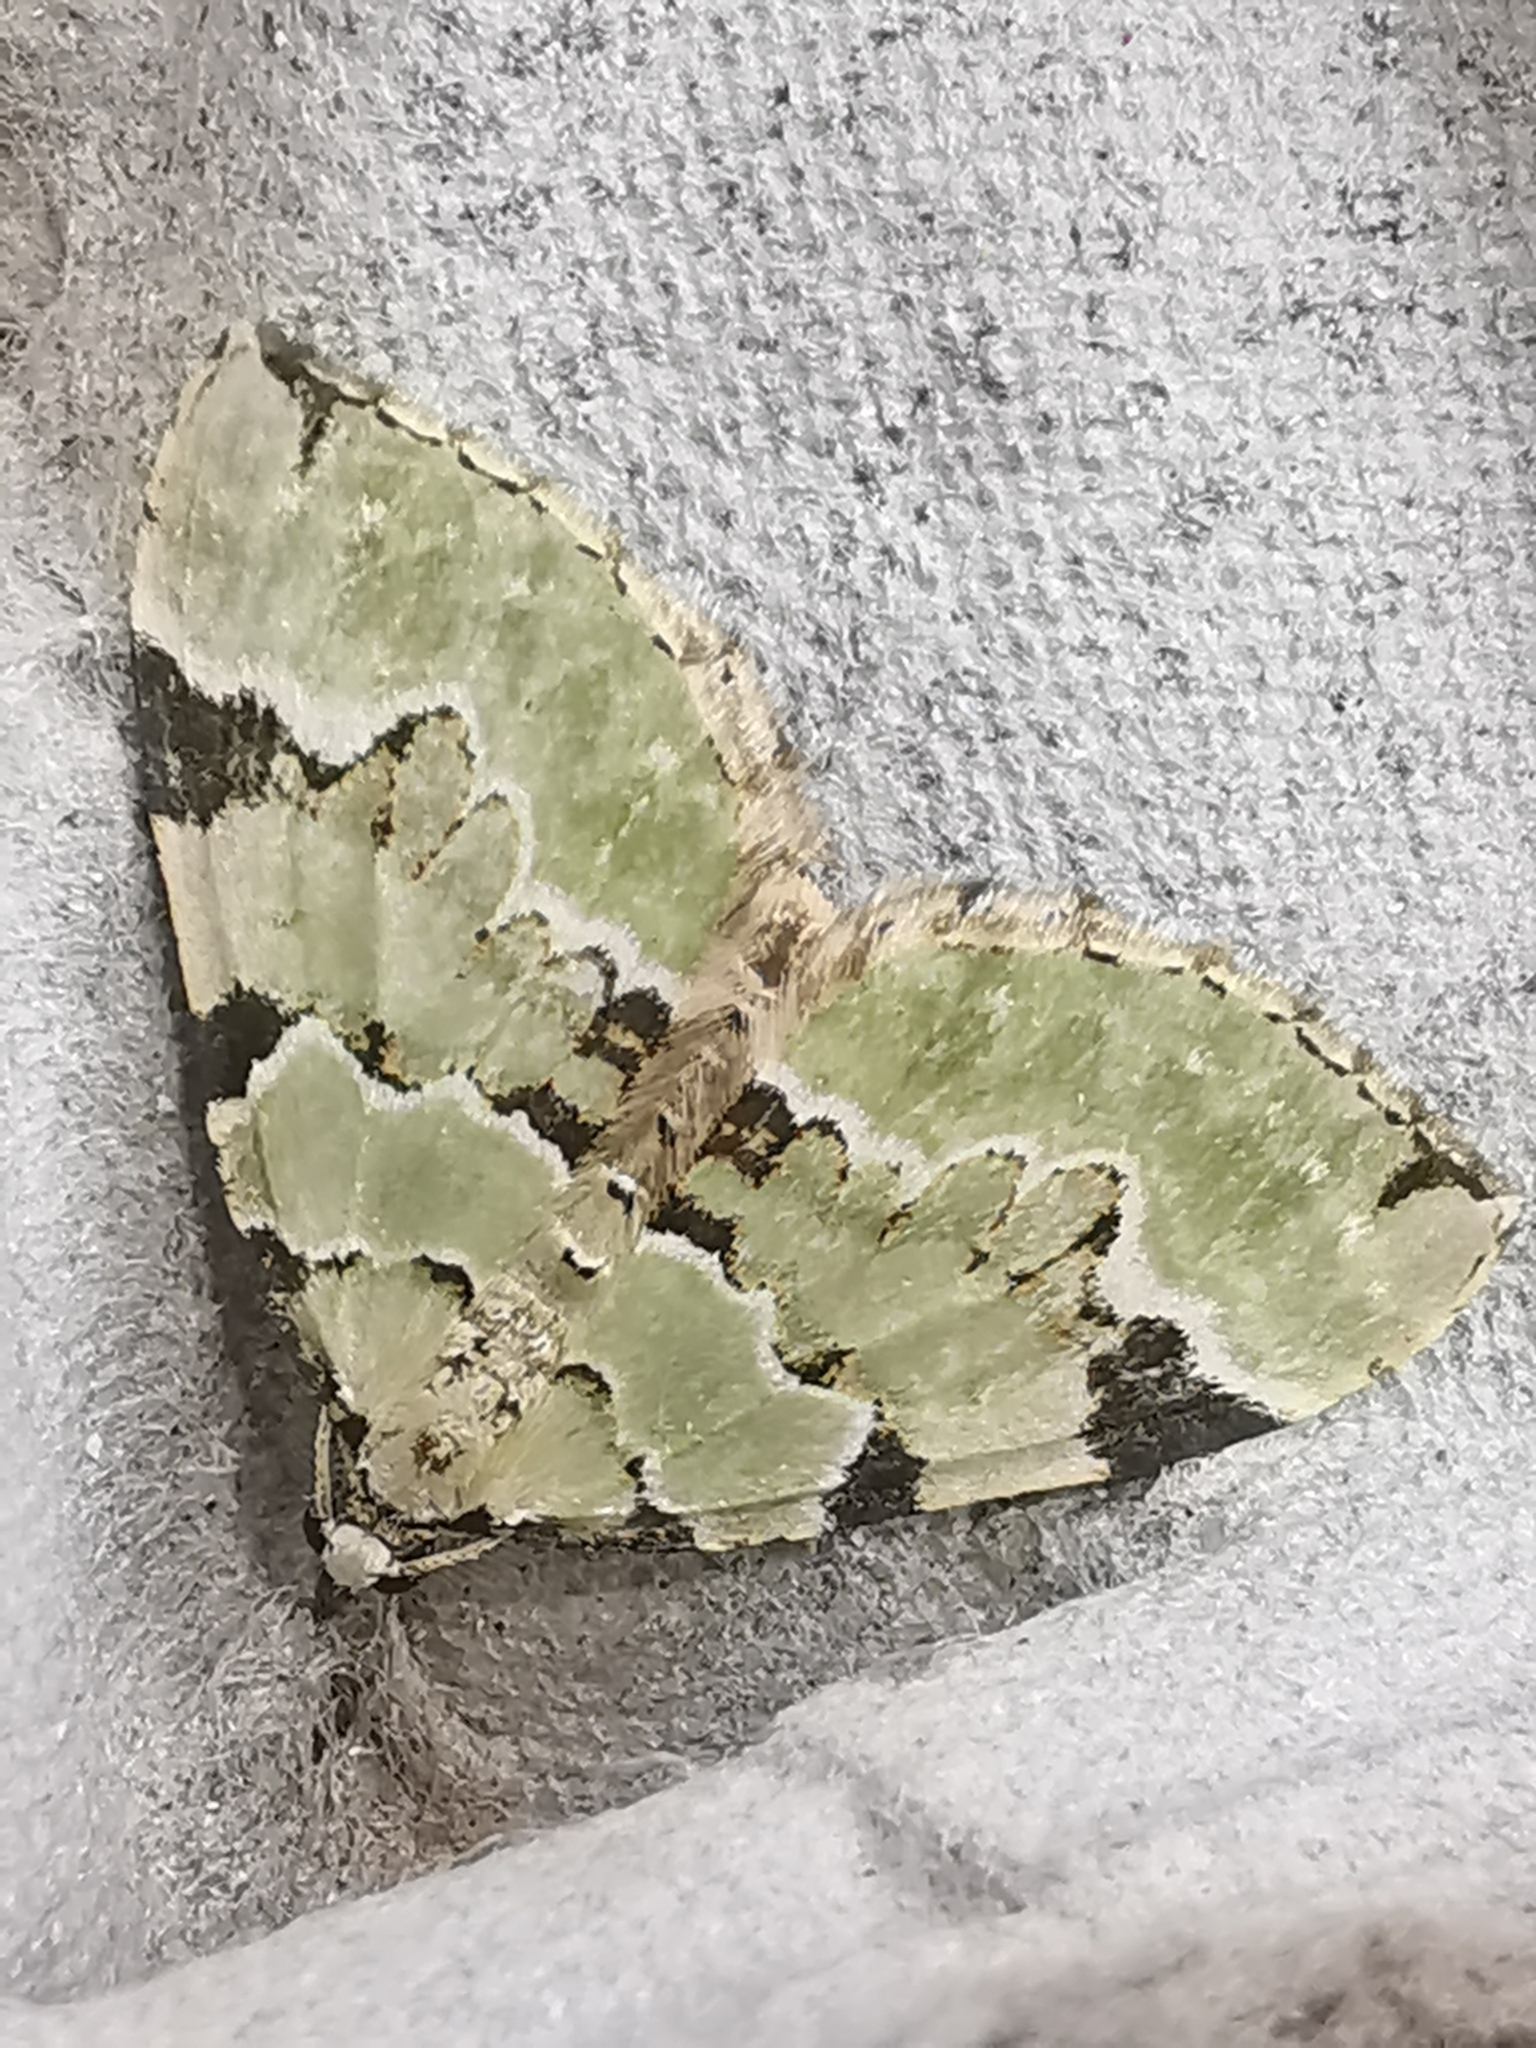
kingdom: Animalia
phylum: Arthropoda
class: Insecta
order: Lepidoptera
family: Geometridae
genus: Colostygia
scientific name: Colostygia pectinataria
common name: Green carpet
